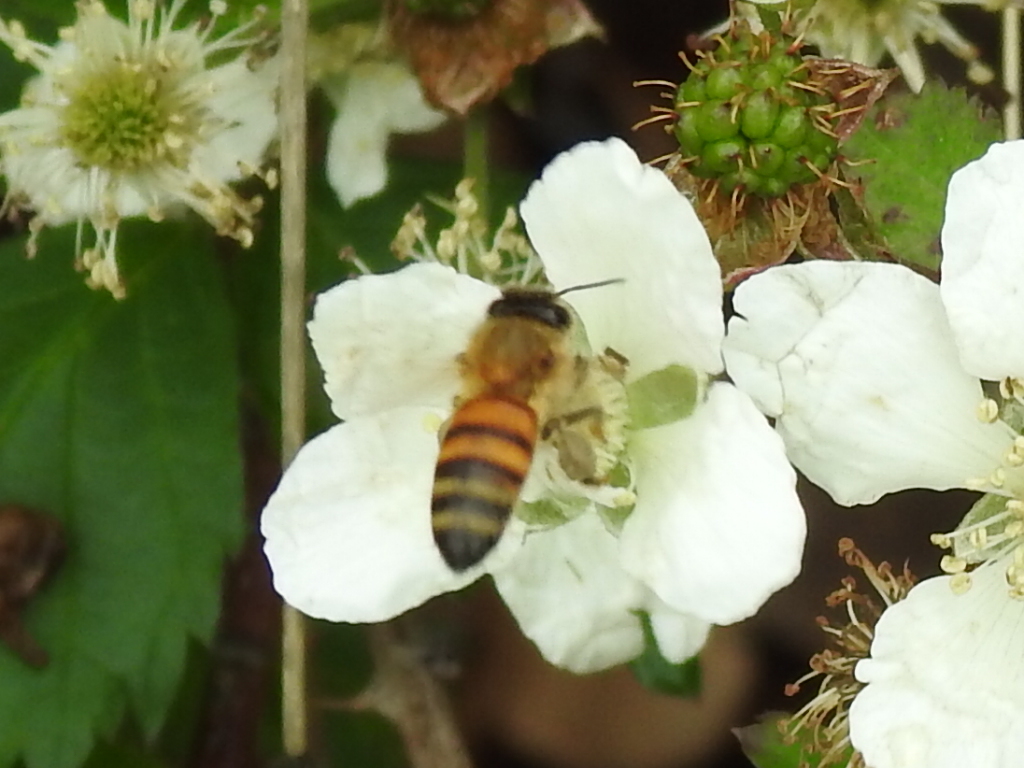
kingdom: Animalia
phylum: Arthropoda
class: Insecta
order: Hymenoptera
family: Apidae
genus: Apis
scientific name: Apis mellifera
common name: Honey bee
